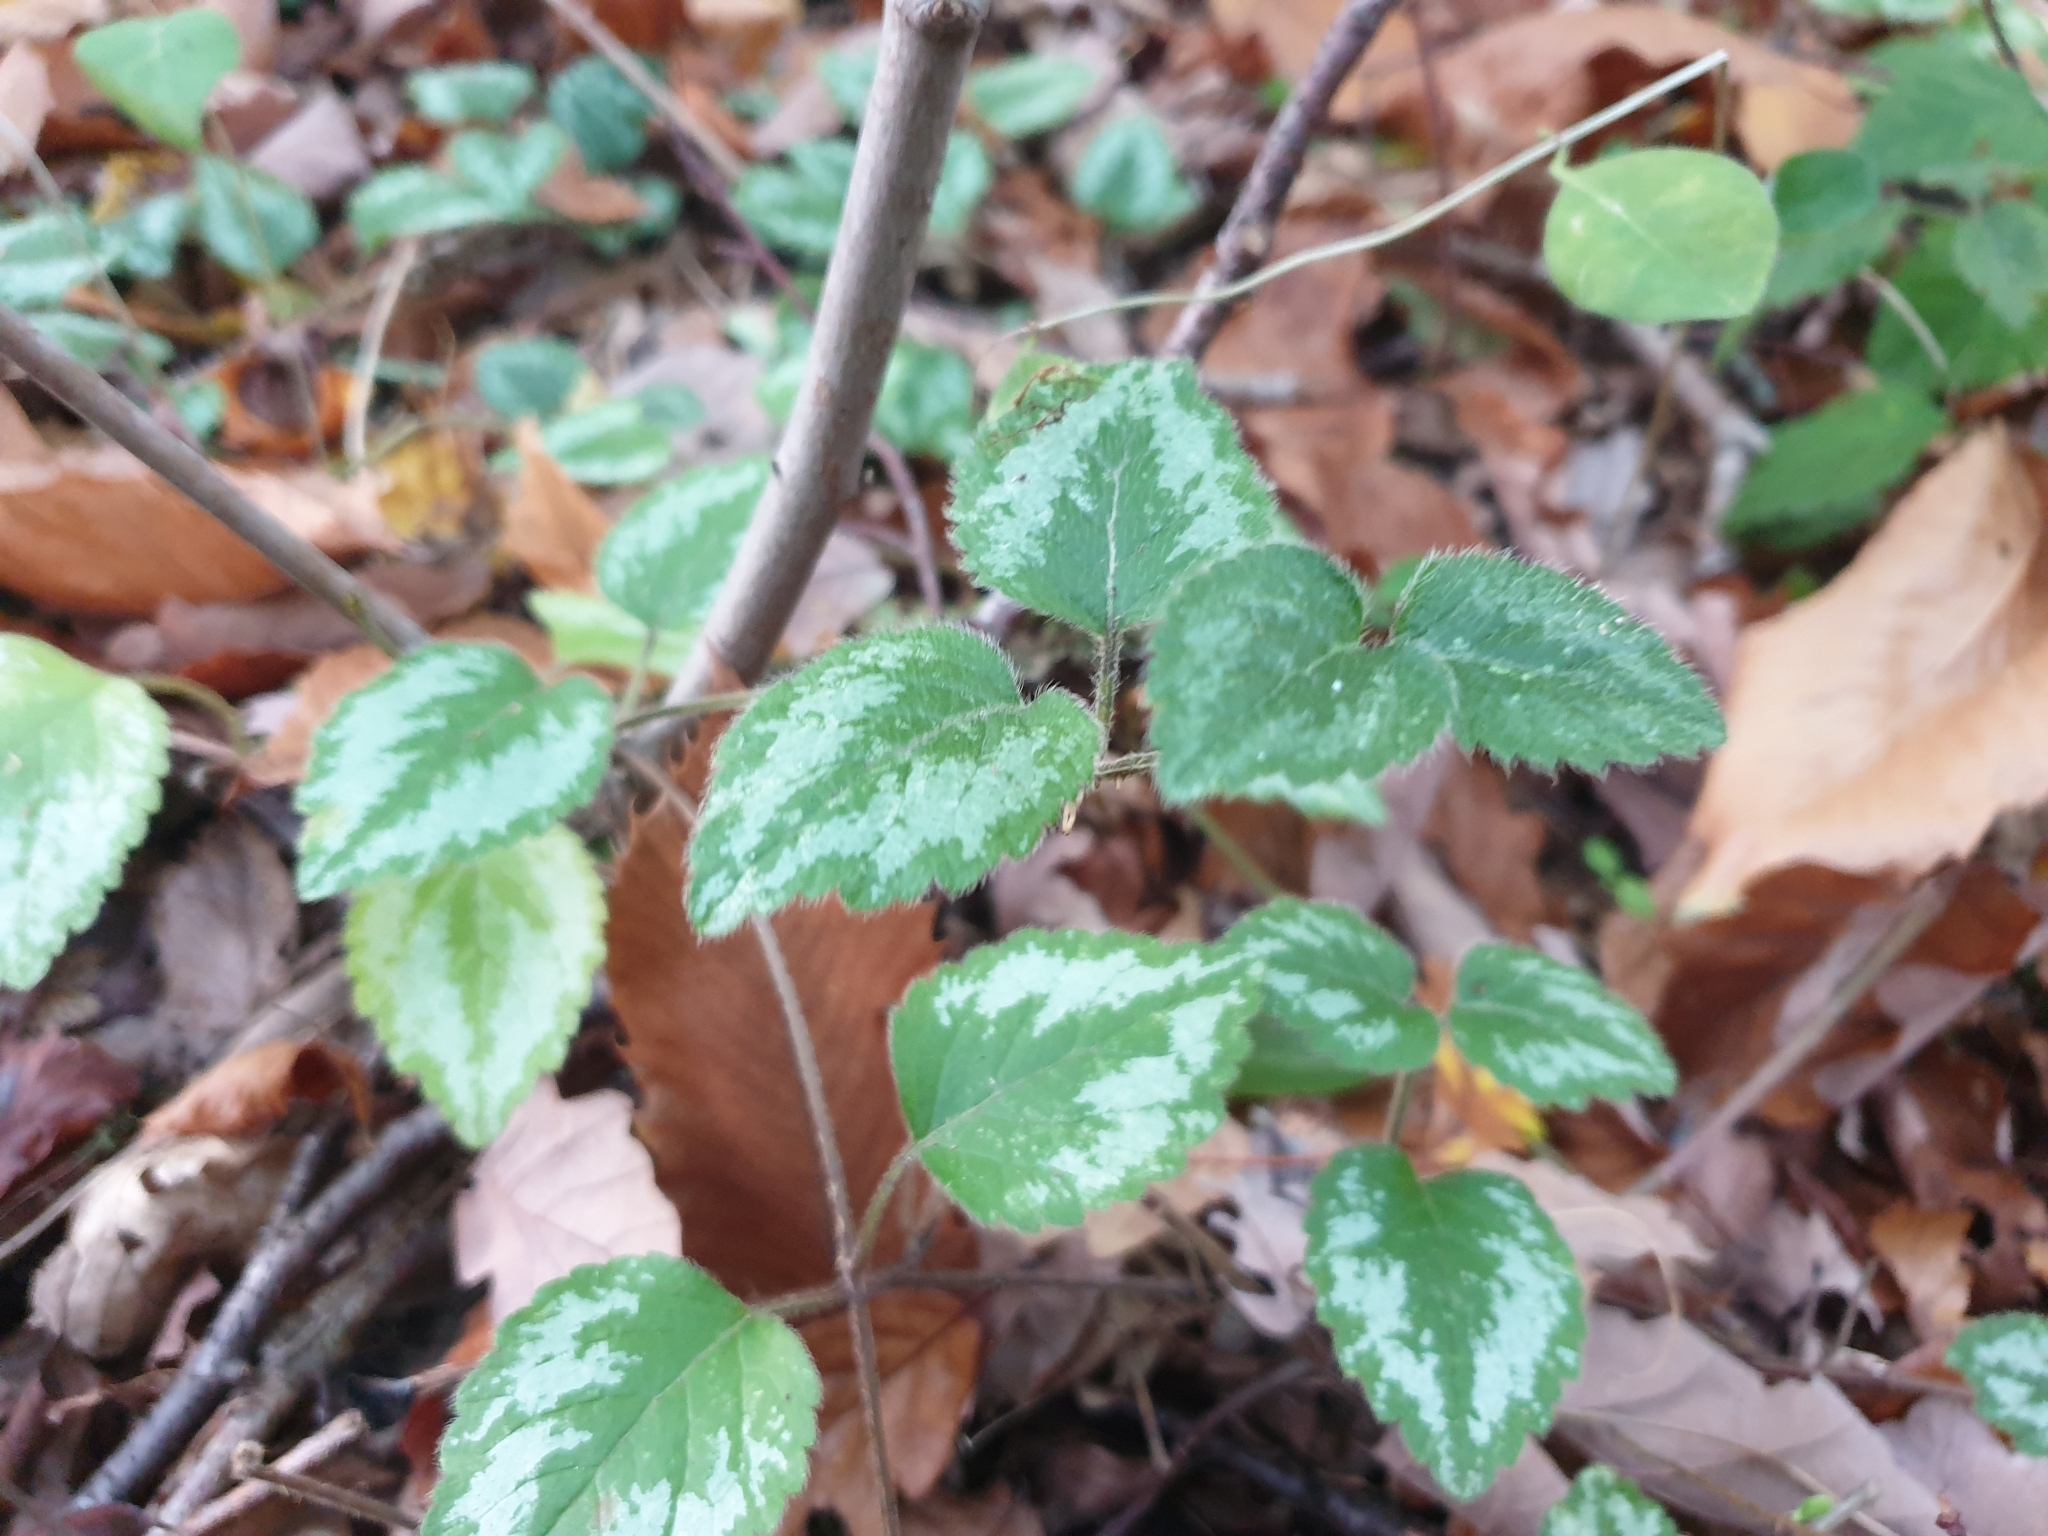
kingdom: Plantae
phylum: Tracheophyta
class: Magnoliopsida
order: Lamiales
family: Lamiaceae
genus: Lamium
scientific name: Lamium galeobdolon
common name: Yellow archangel
